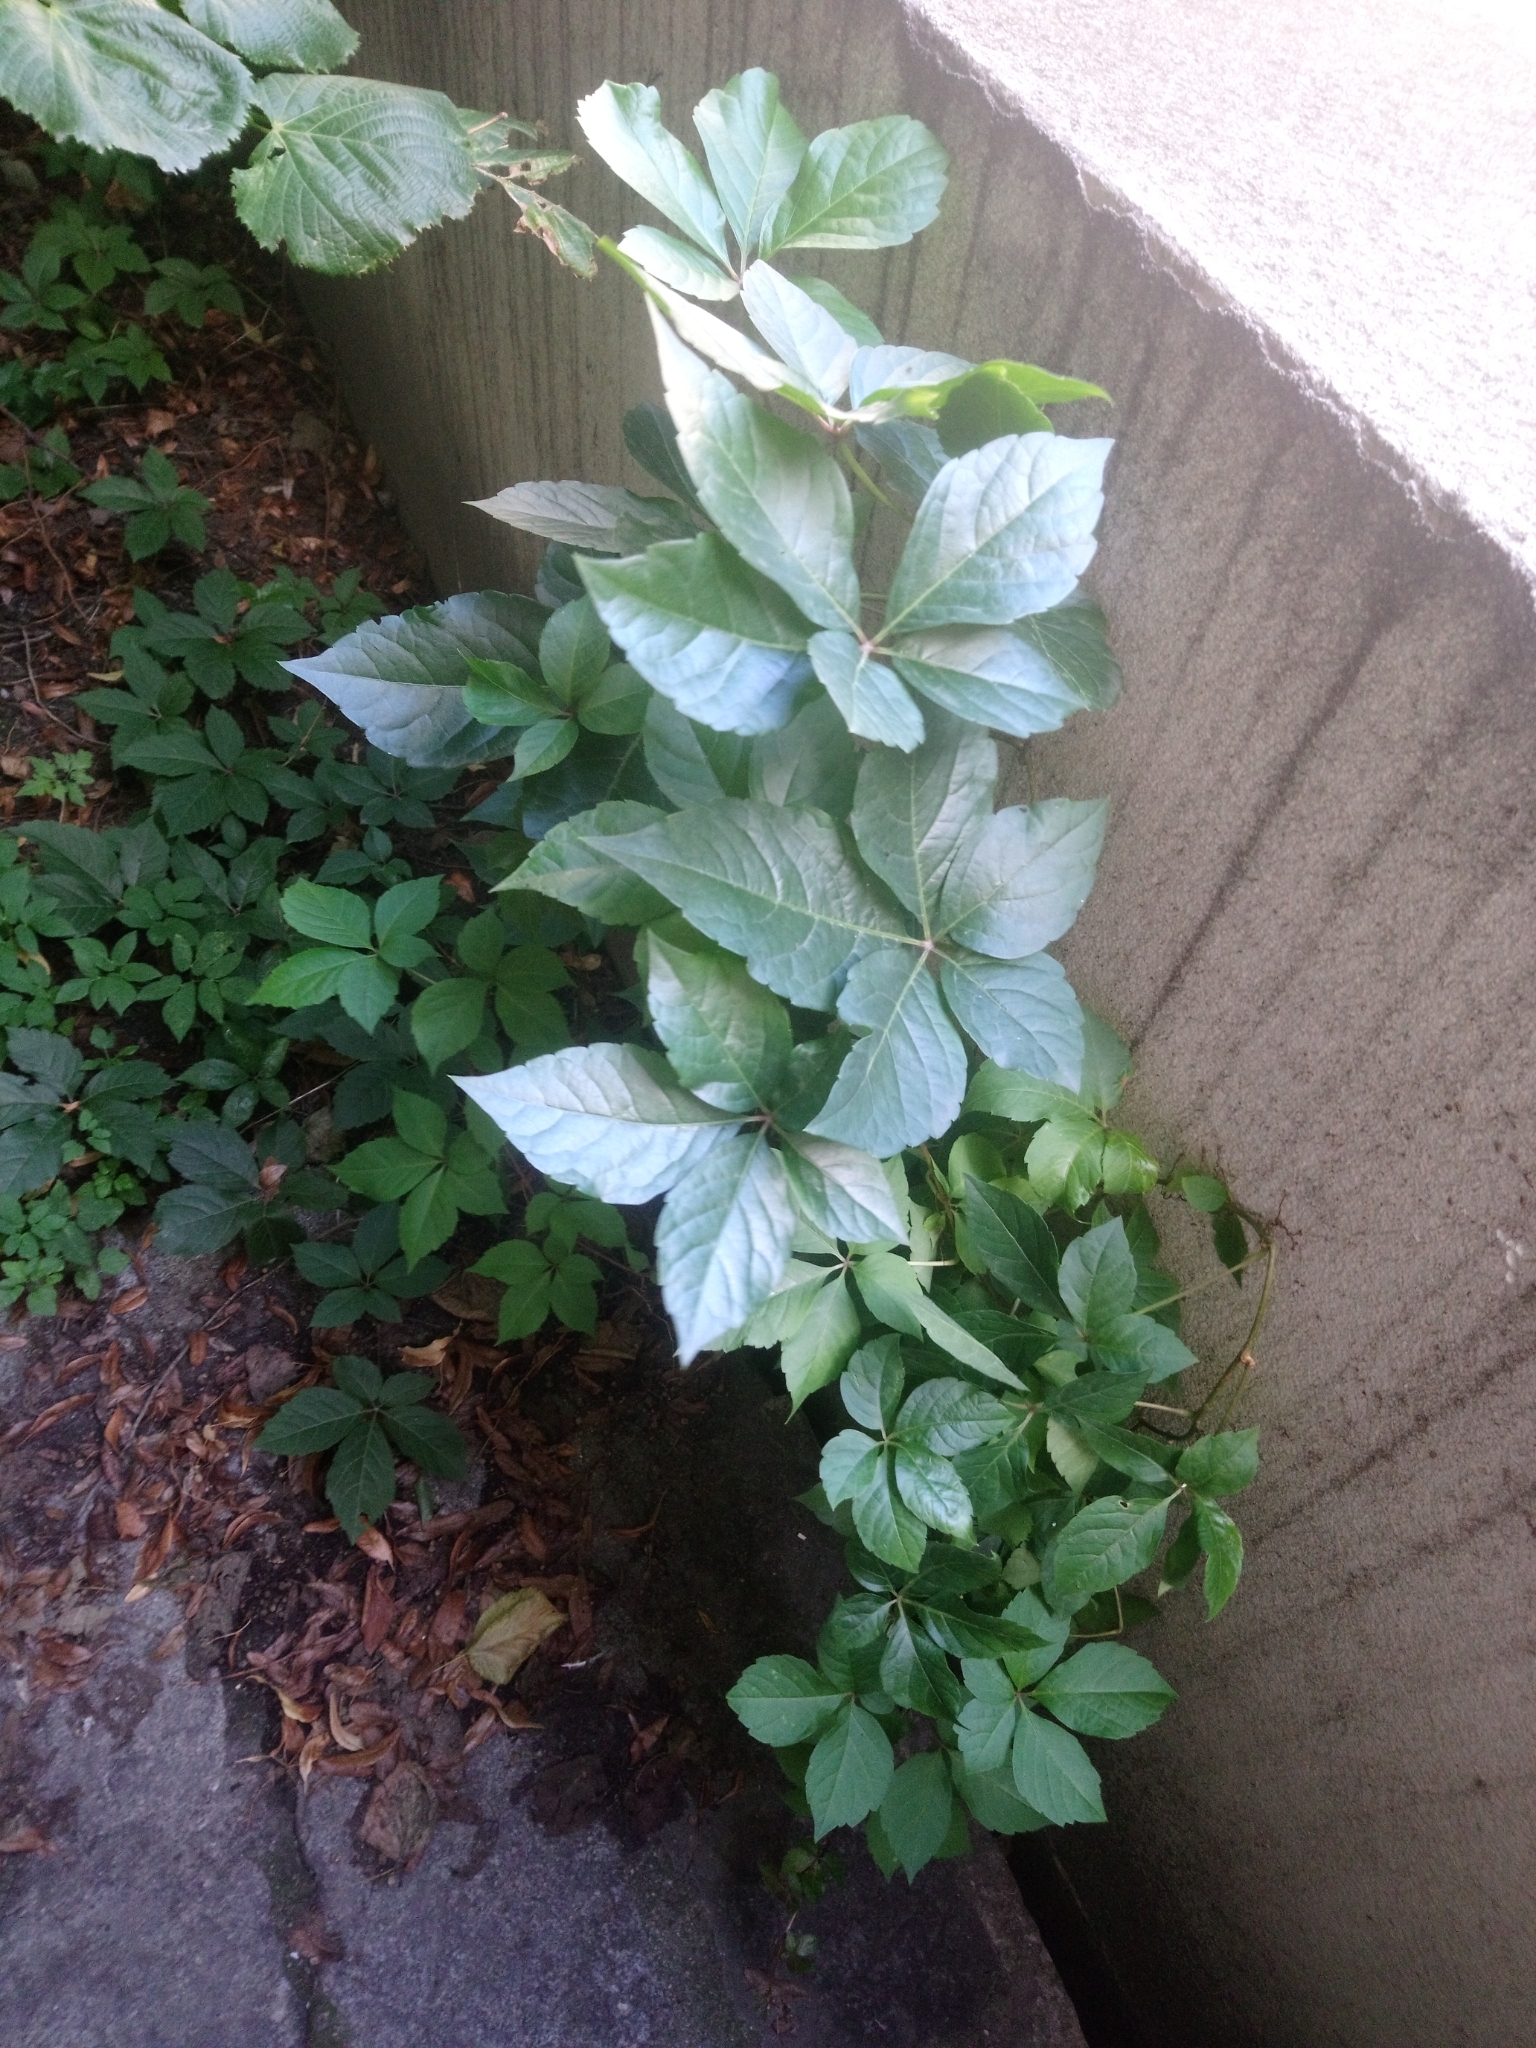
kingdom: Plantae
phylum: Tracheophyta
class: Magnoliopsida
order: Vitales
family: Vitaceae
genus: Parthenocissus
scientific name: Parthenocissus quinquefolia
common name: Virginia-creeper
